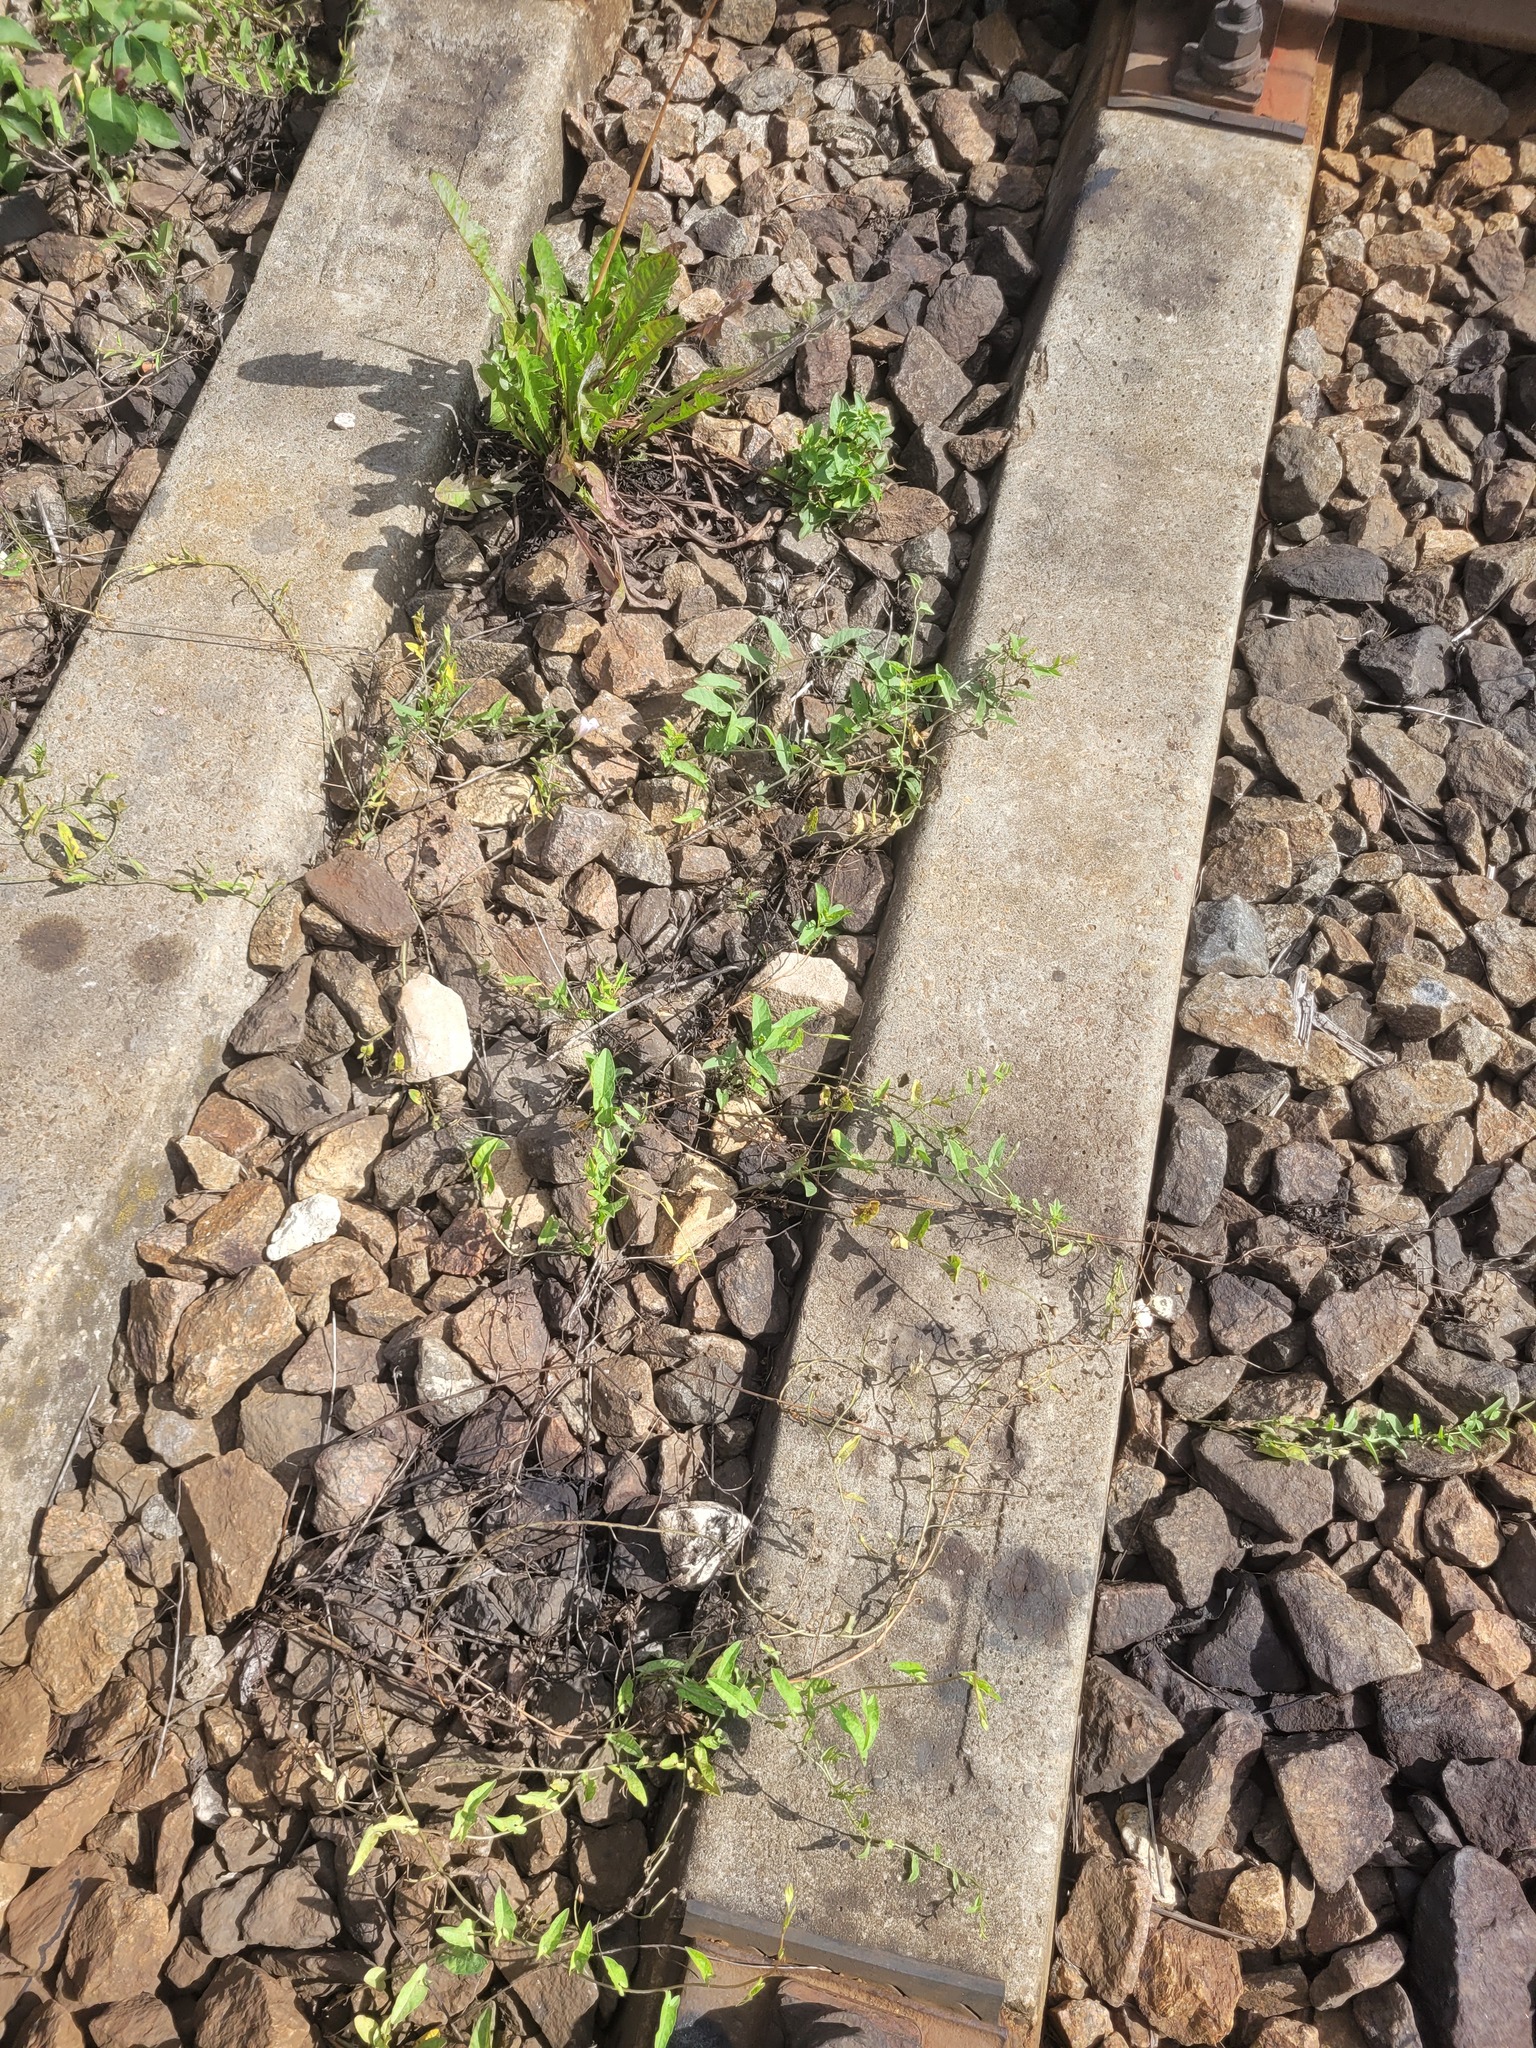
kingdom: Plantae
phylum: Tracheophyta
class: Magnoliopsida
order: Solanales
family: Convolvulaceae
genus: Convolvulus
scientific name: Convolvulus arvensis
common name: Field bindweed
